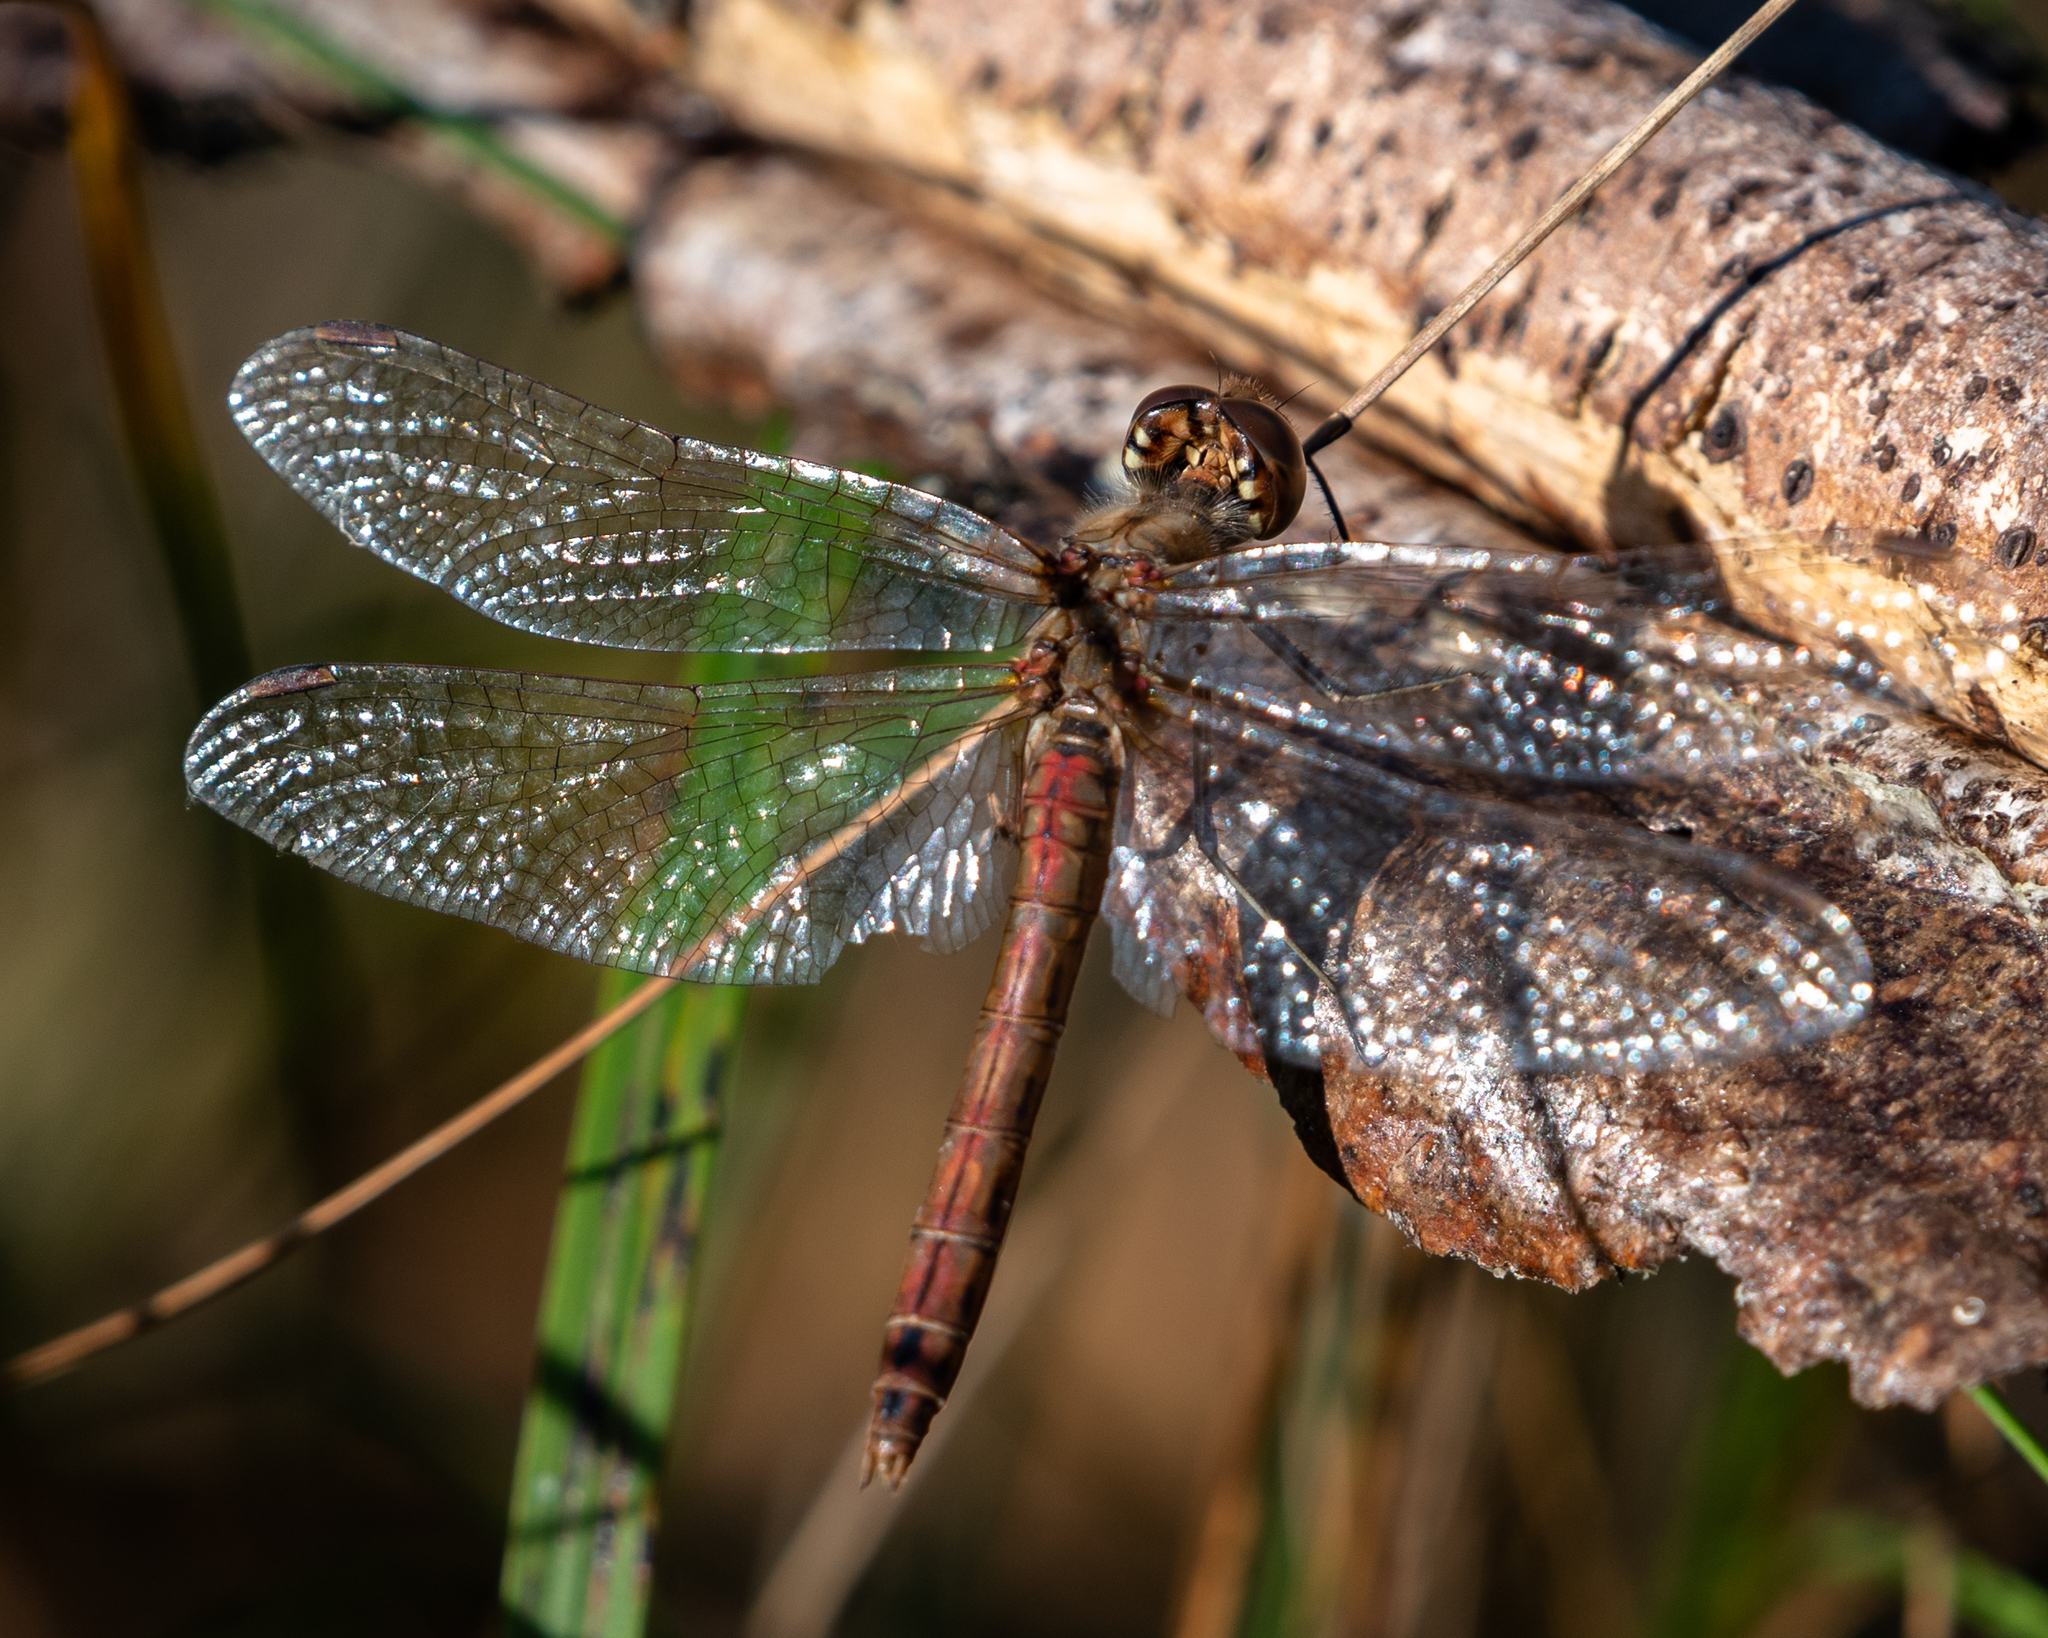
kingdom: Animalia
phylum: Arthropoda
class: Insecta
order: Odonata
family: Libellulidae
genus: Sympetrum
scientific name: Sympetrum vulgatum
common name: Vagrant darter
